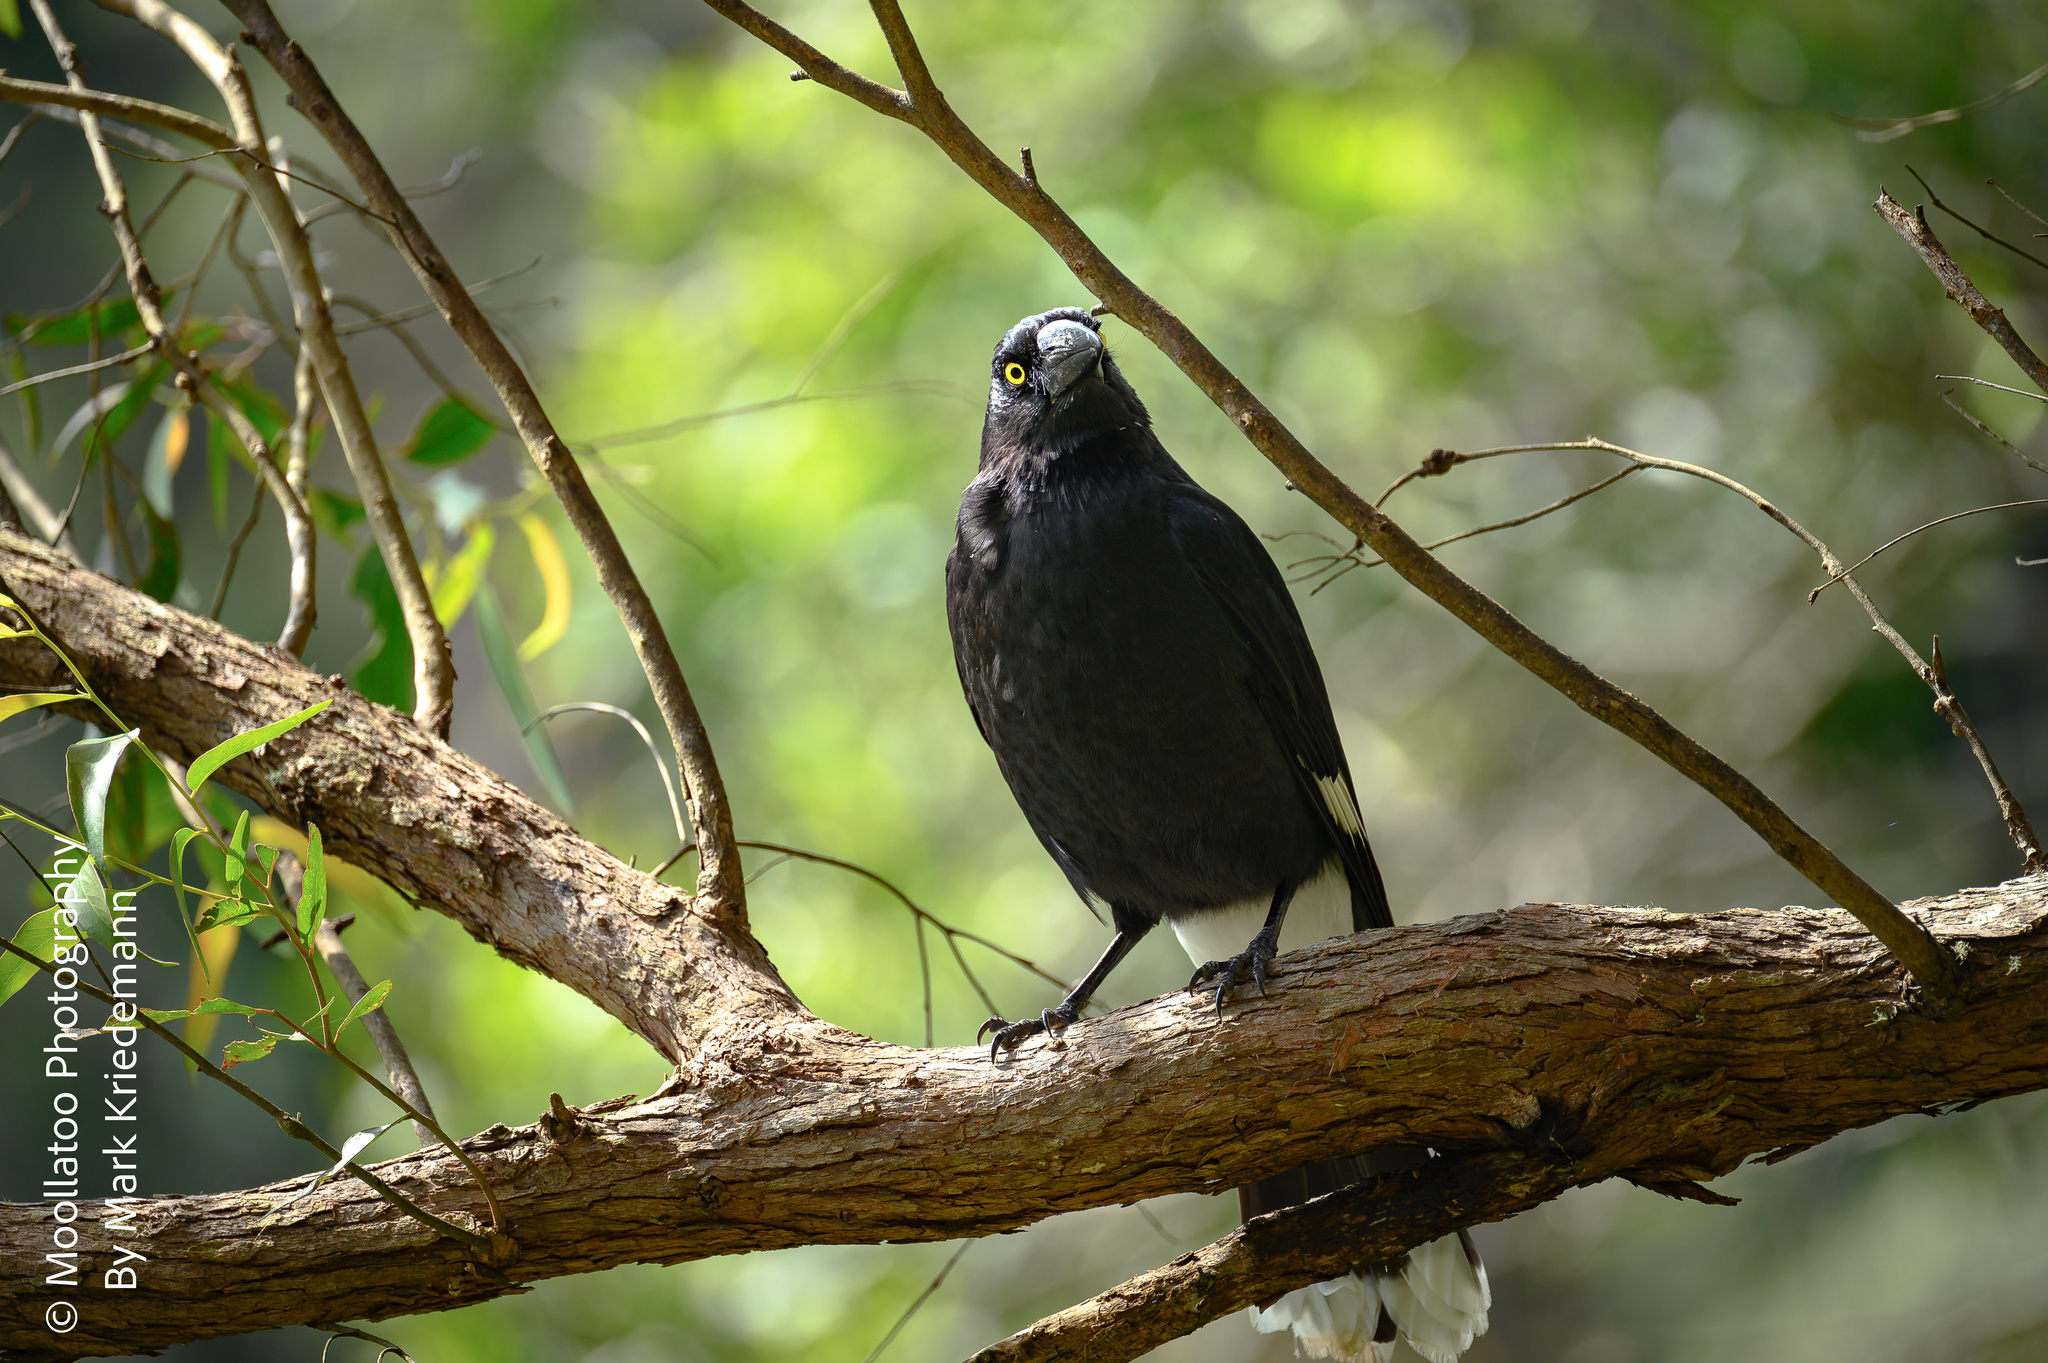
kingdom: Animalia
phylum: Chordata
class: Aves
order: Passeriformes
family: Cracticidae
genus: Strepera
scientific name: Strepera graculina
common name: Pied currawong
